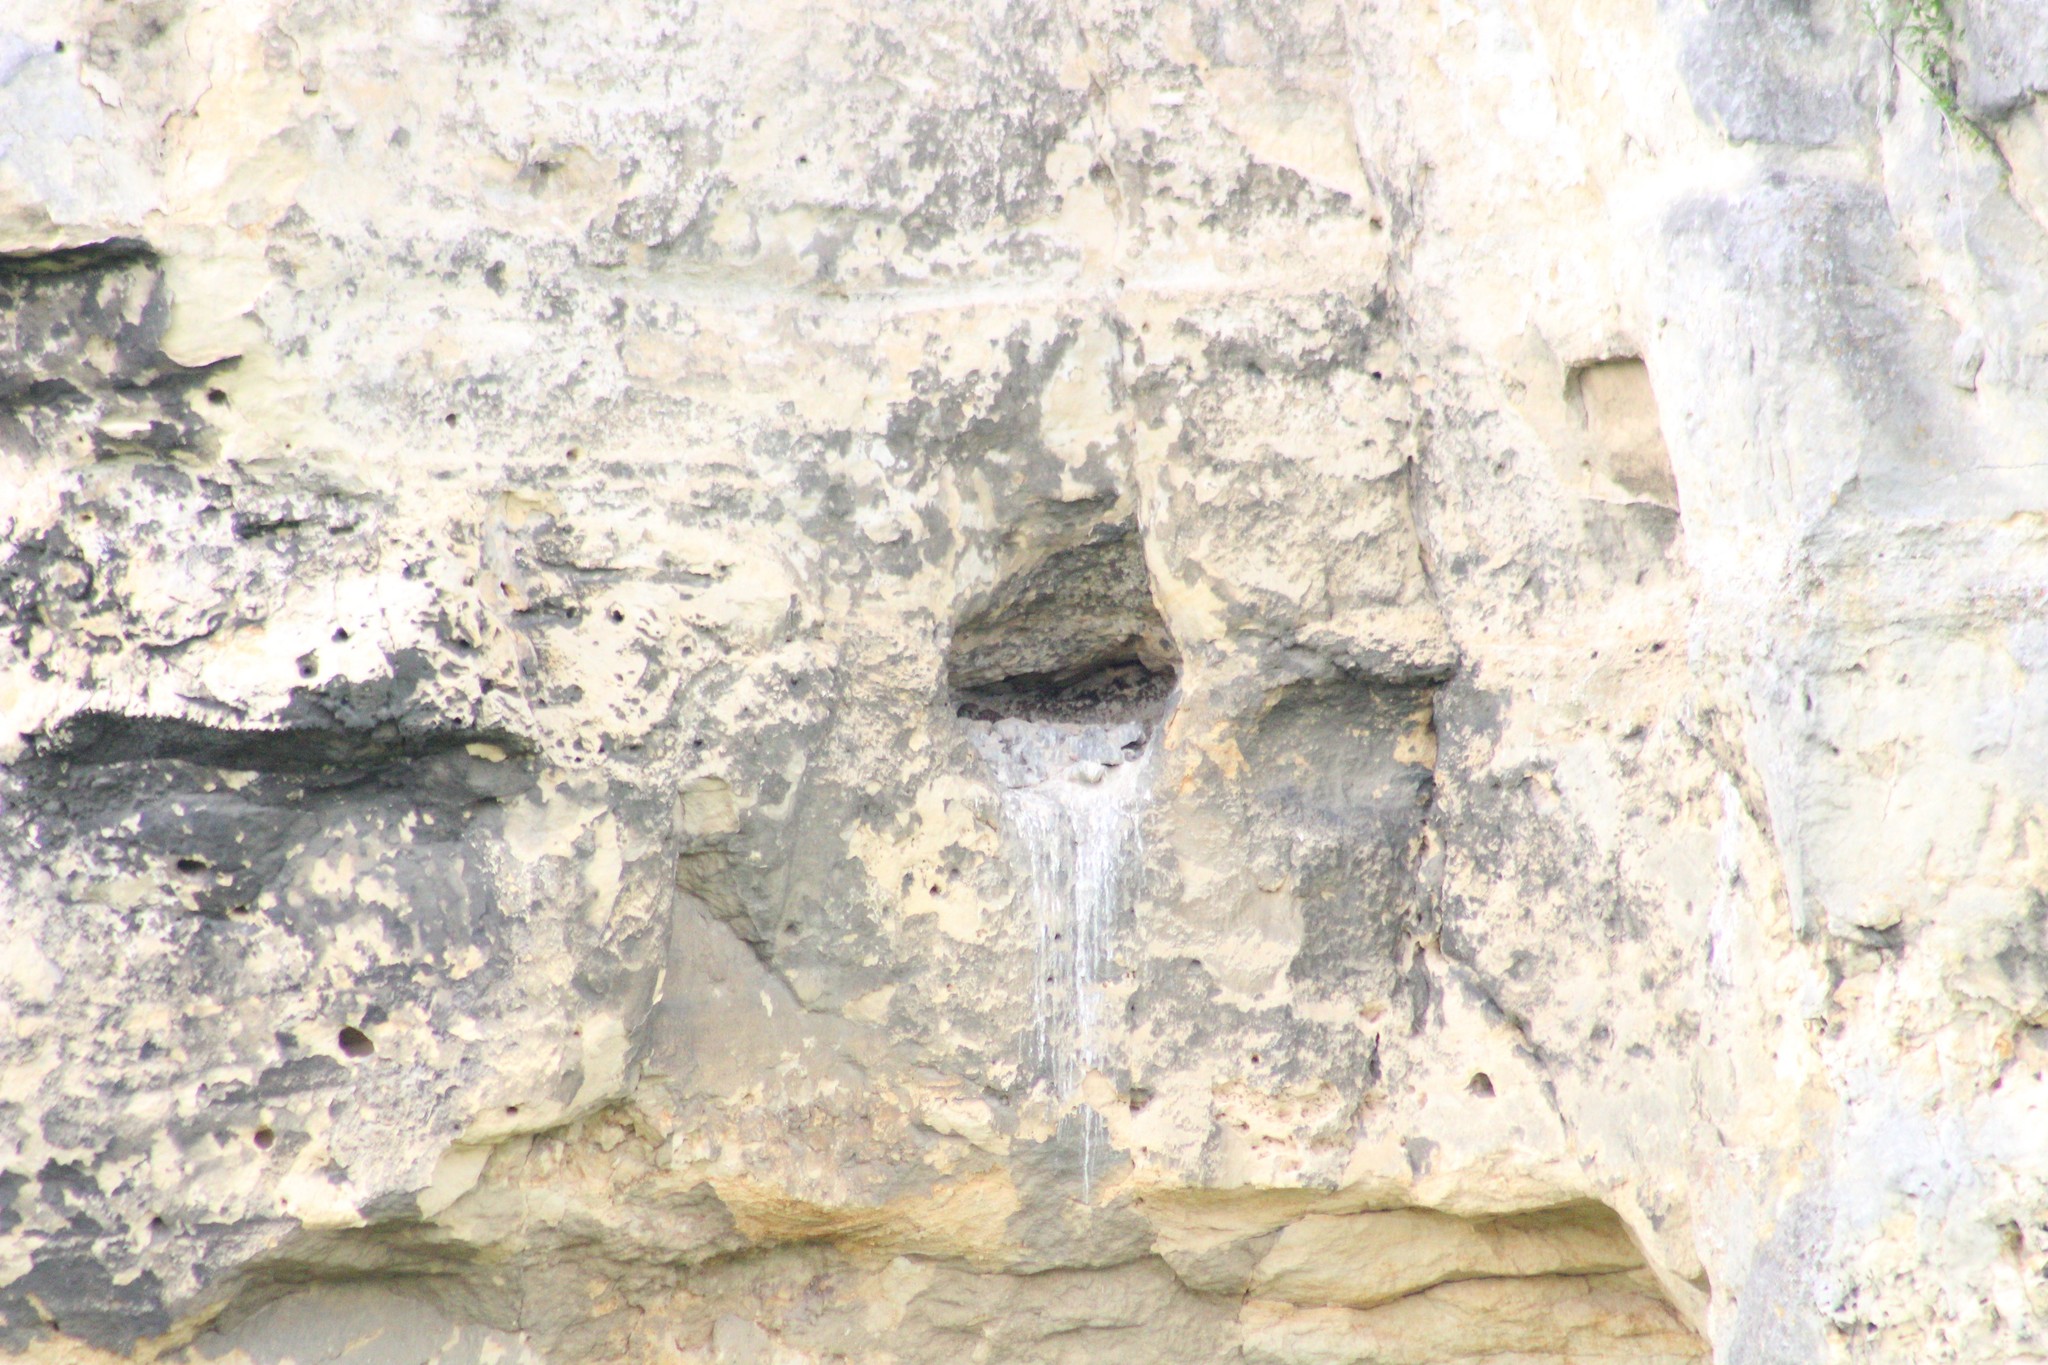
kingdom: Animalia
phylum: Chordata
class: Aves
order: Falconiformes
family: Falconidae
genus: Falco
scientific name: Falco tinnunculus
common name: Common kestrel
